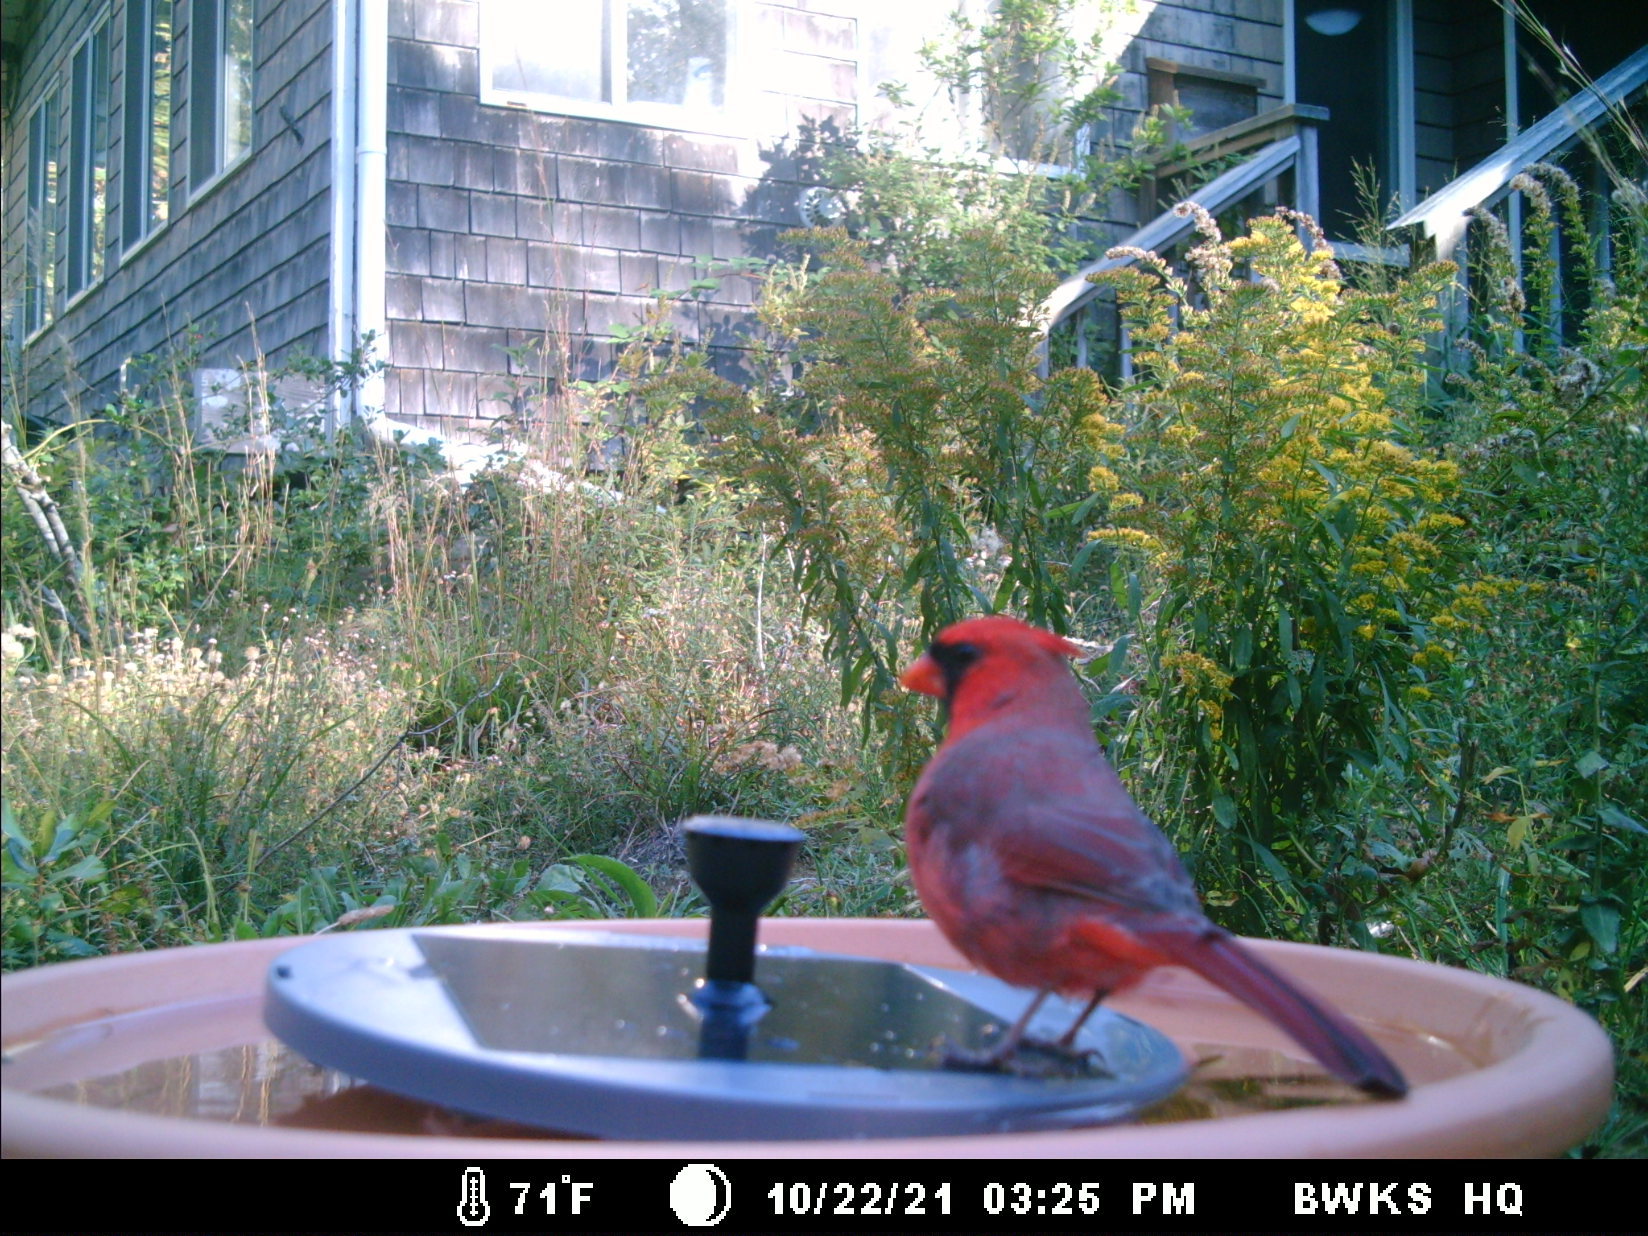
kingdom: Animalia
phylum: Chordata
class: Aves
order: Passeriformes
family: Cardinalidae
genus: Cardinalis
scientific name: Cardinalis cardinalis
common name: Northern cardinal
